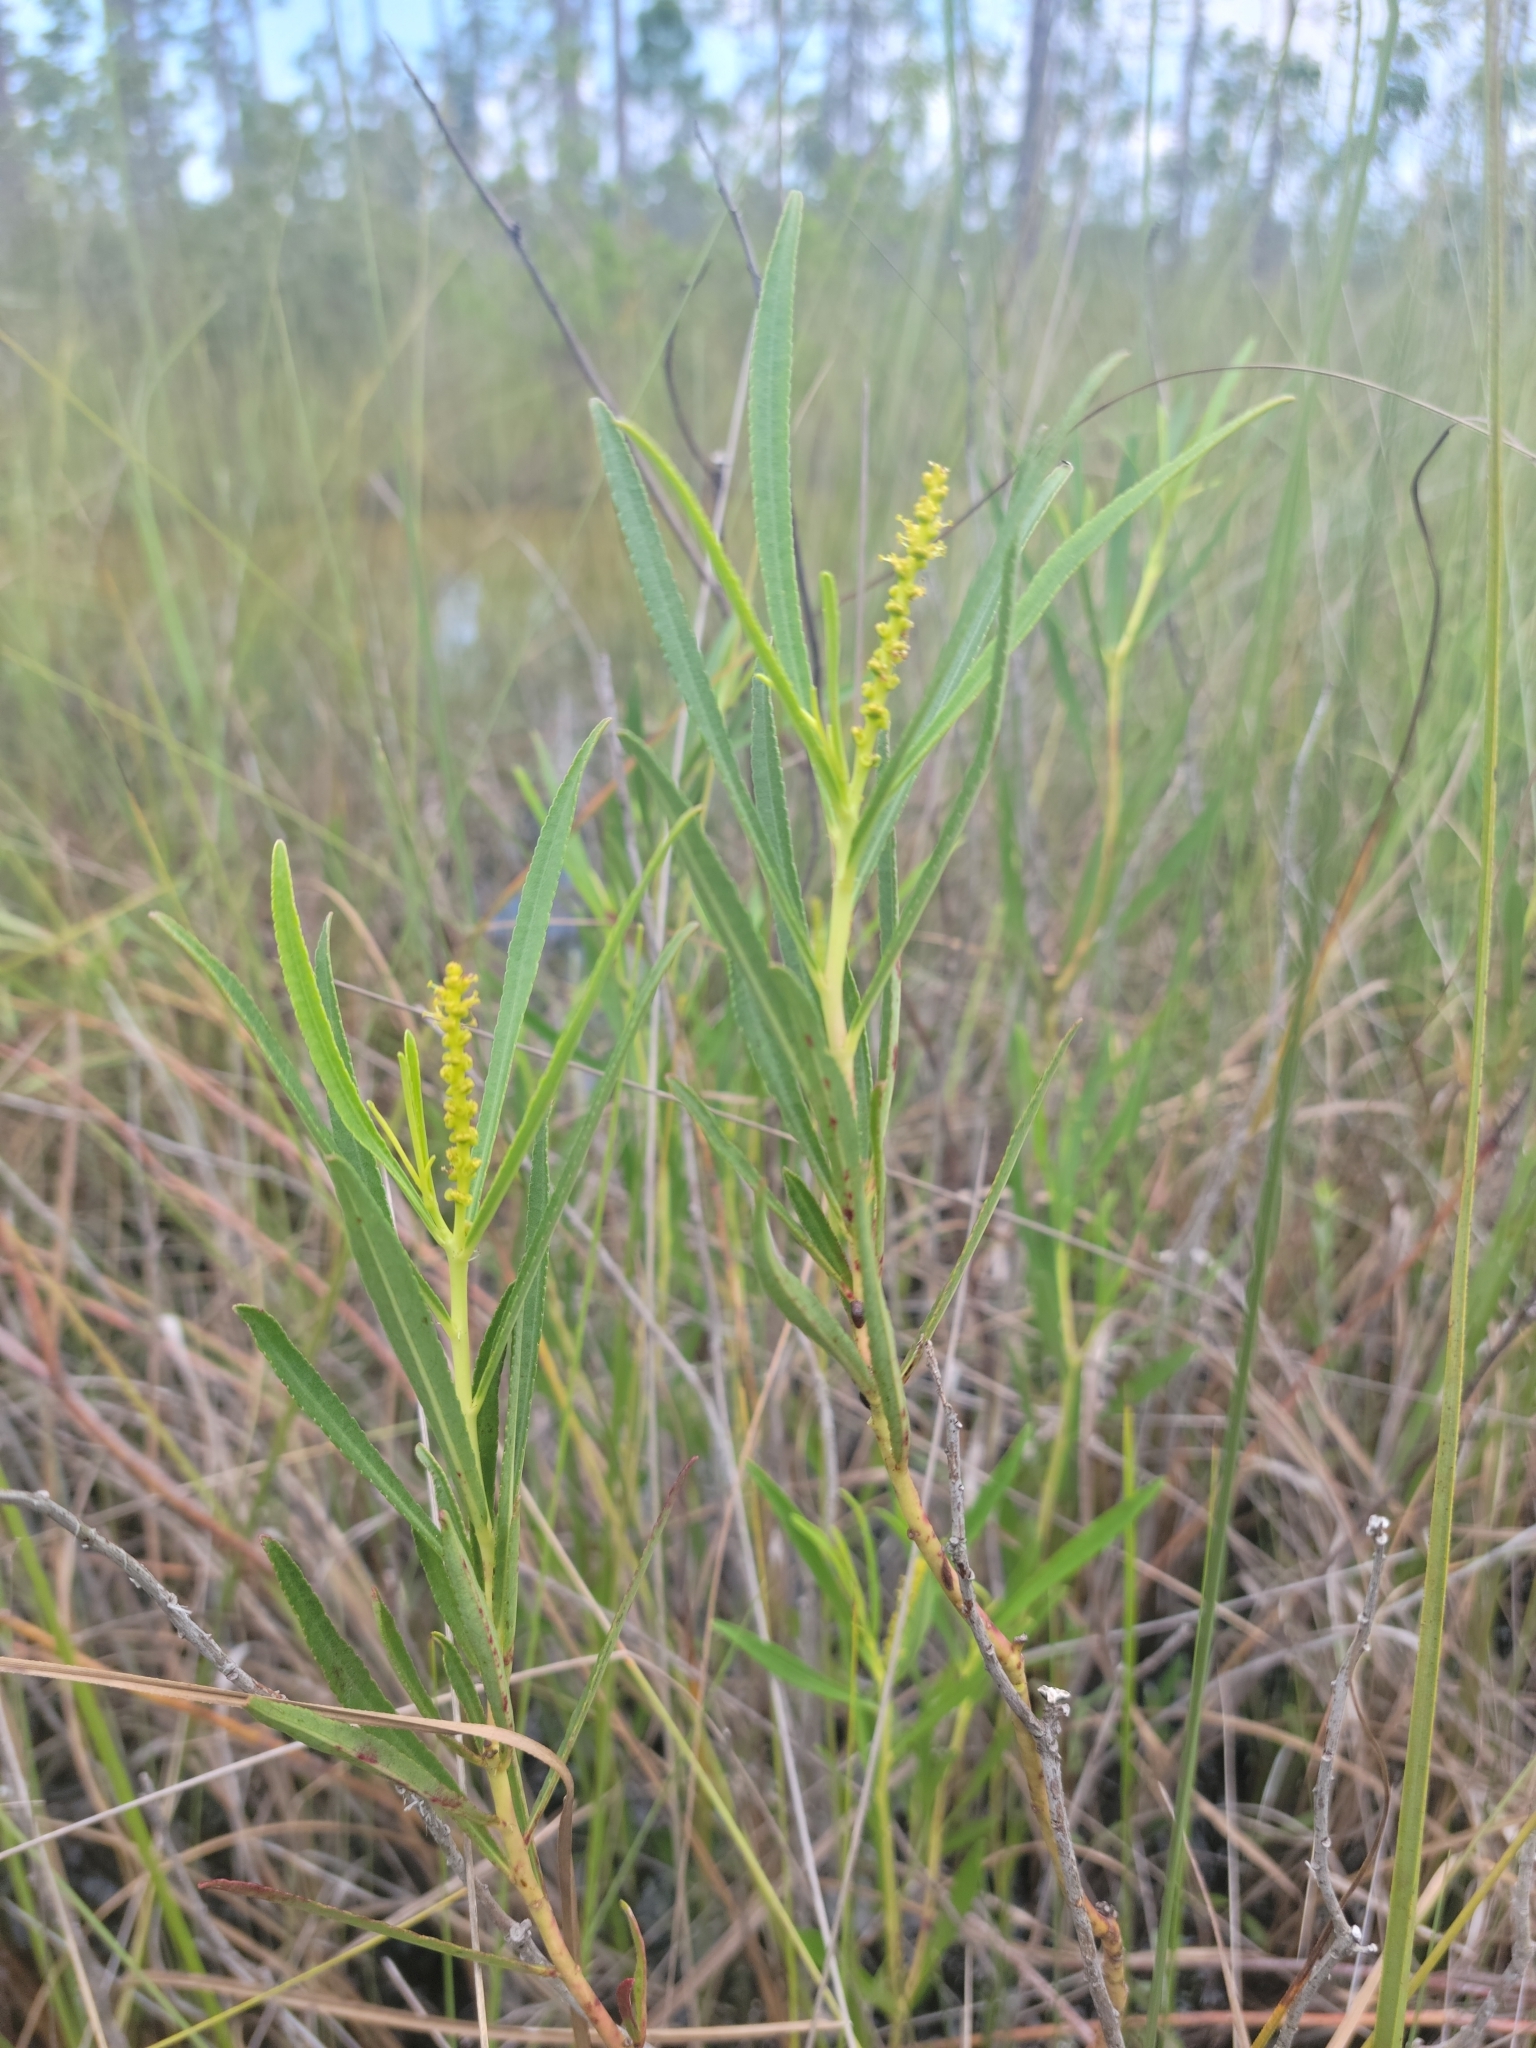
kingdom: Plantae
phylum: Tracheophyta
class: Magnoliopsida
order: Malpighiales
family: Euphorbiaceae
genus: Stillingia
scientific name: Stillingia sylvatica
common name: Queen's-delight
